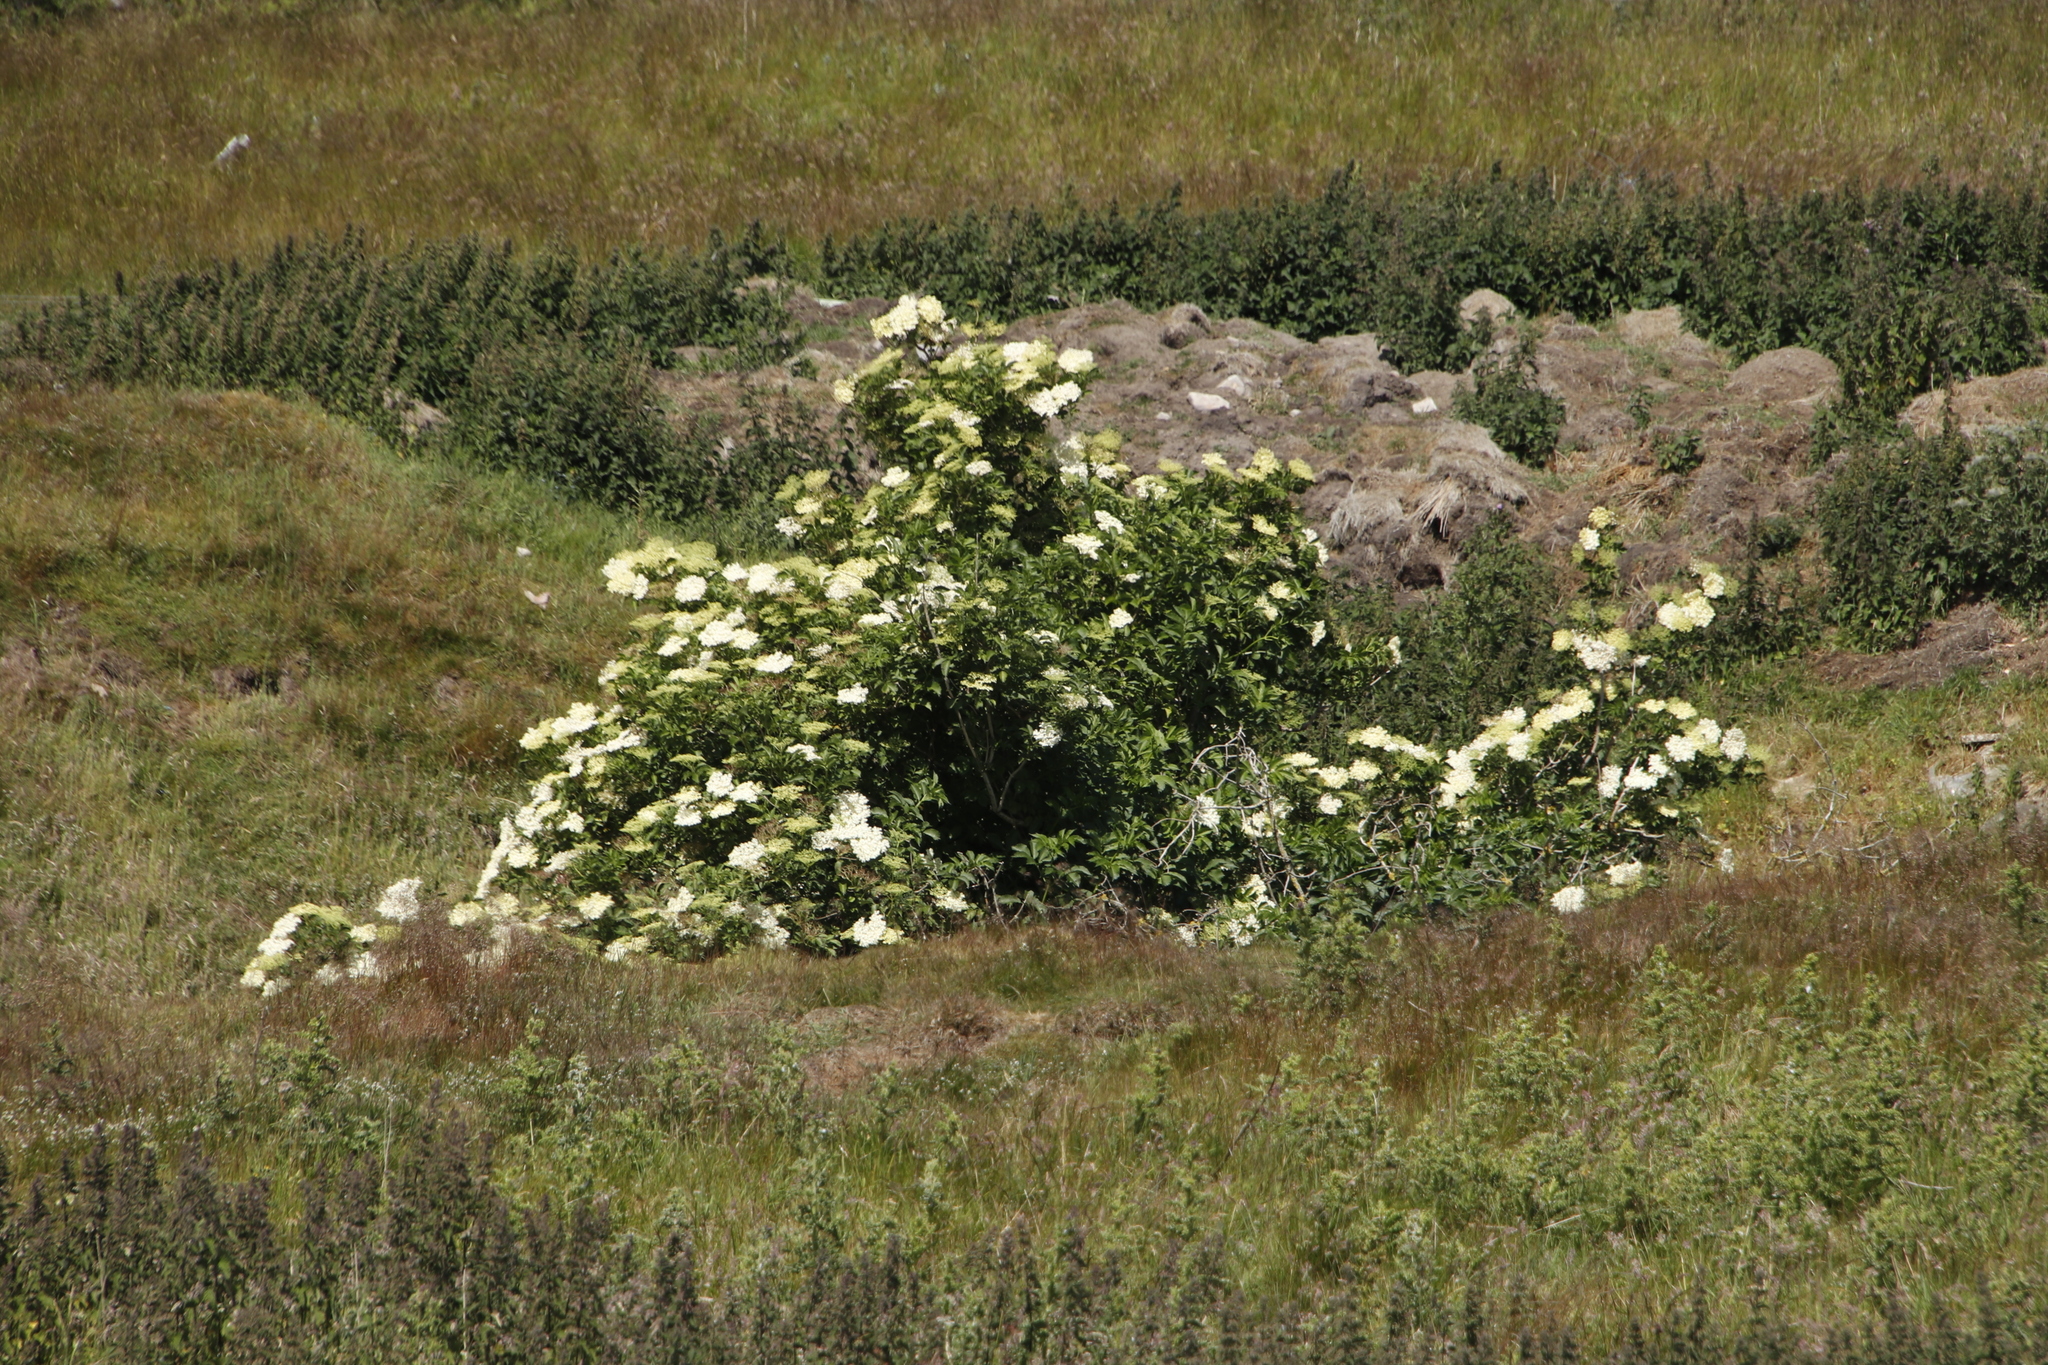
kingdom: Plantae
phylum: Tracheophyta
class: Magnoliopsida
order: Dipsacales
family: Viburnaceae
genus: Sambucus
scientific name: Sambucus nigra
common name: Elder
